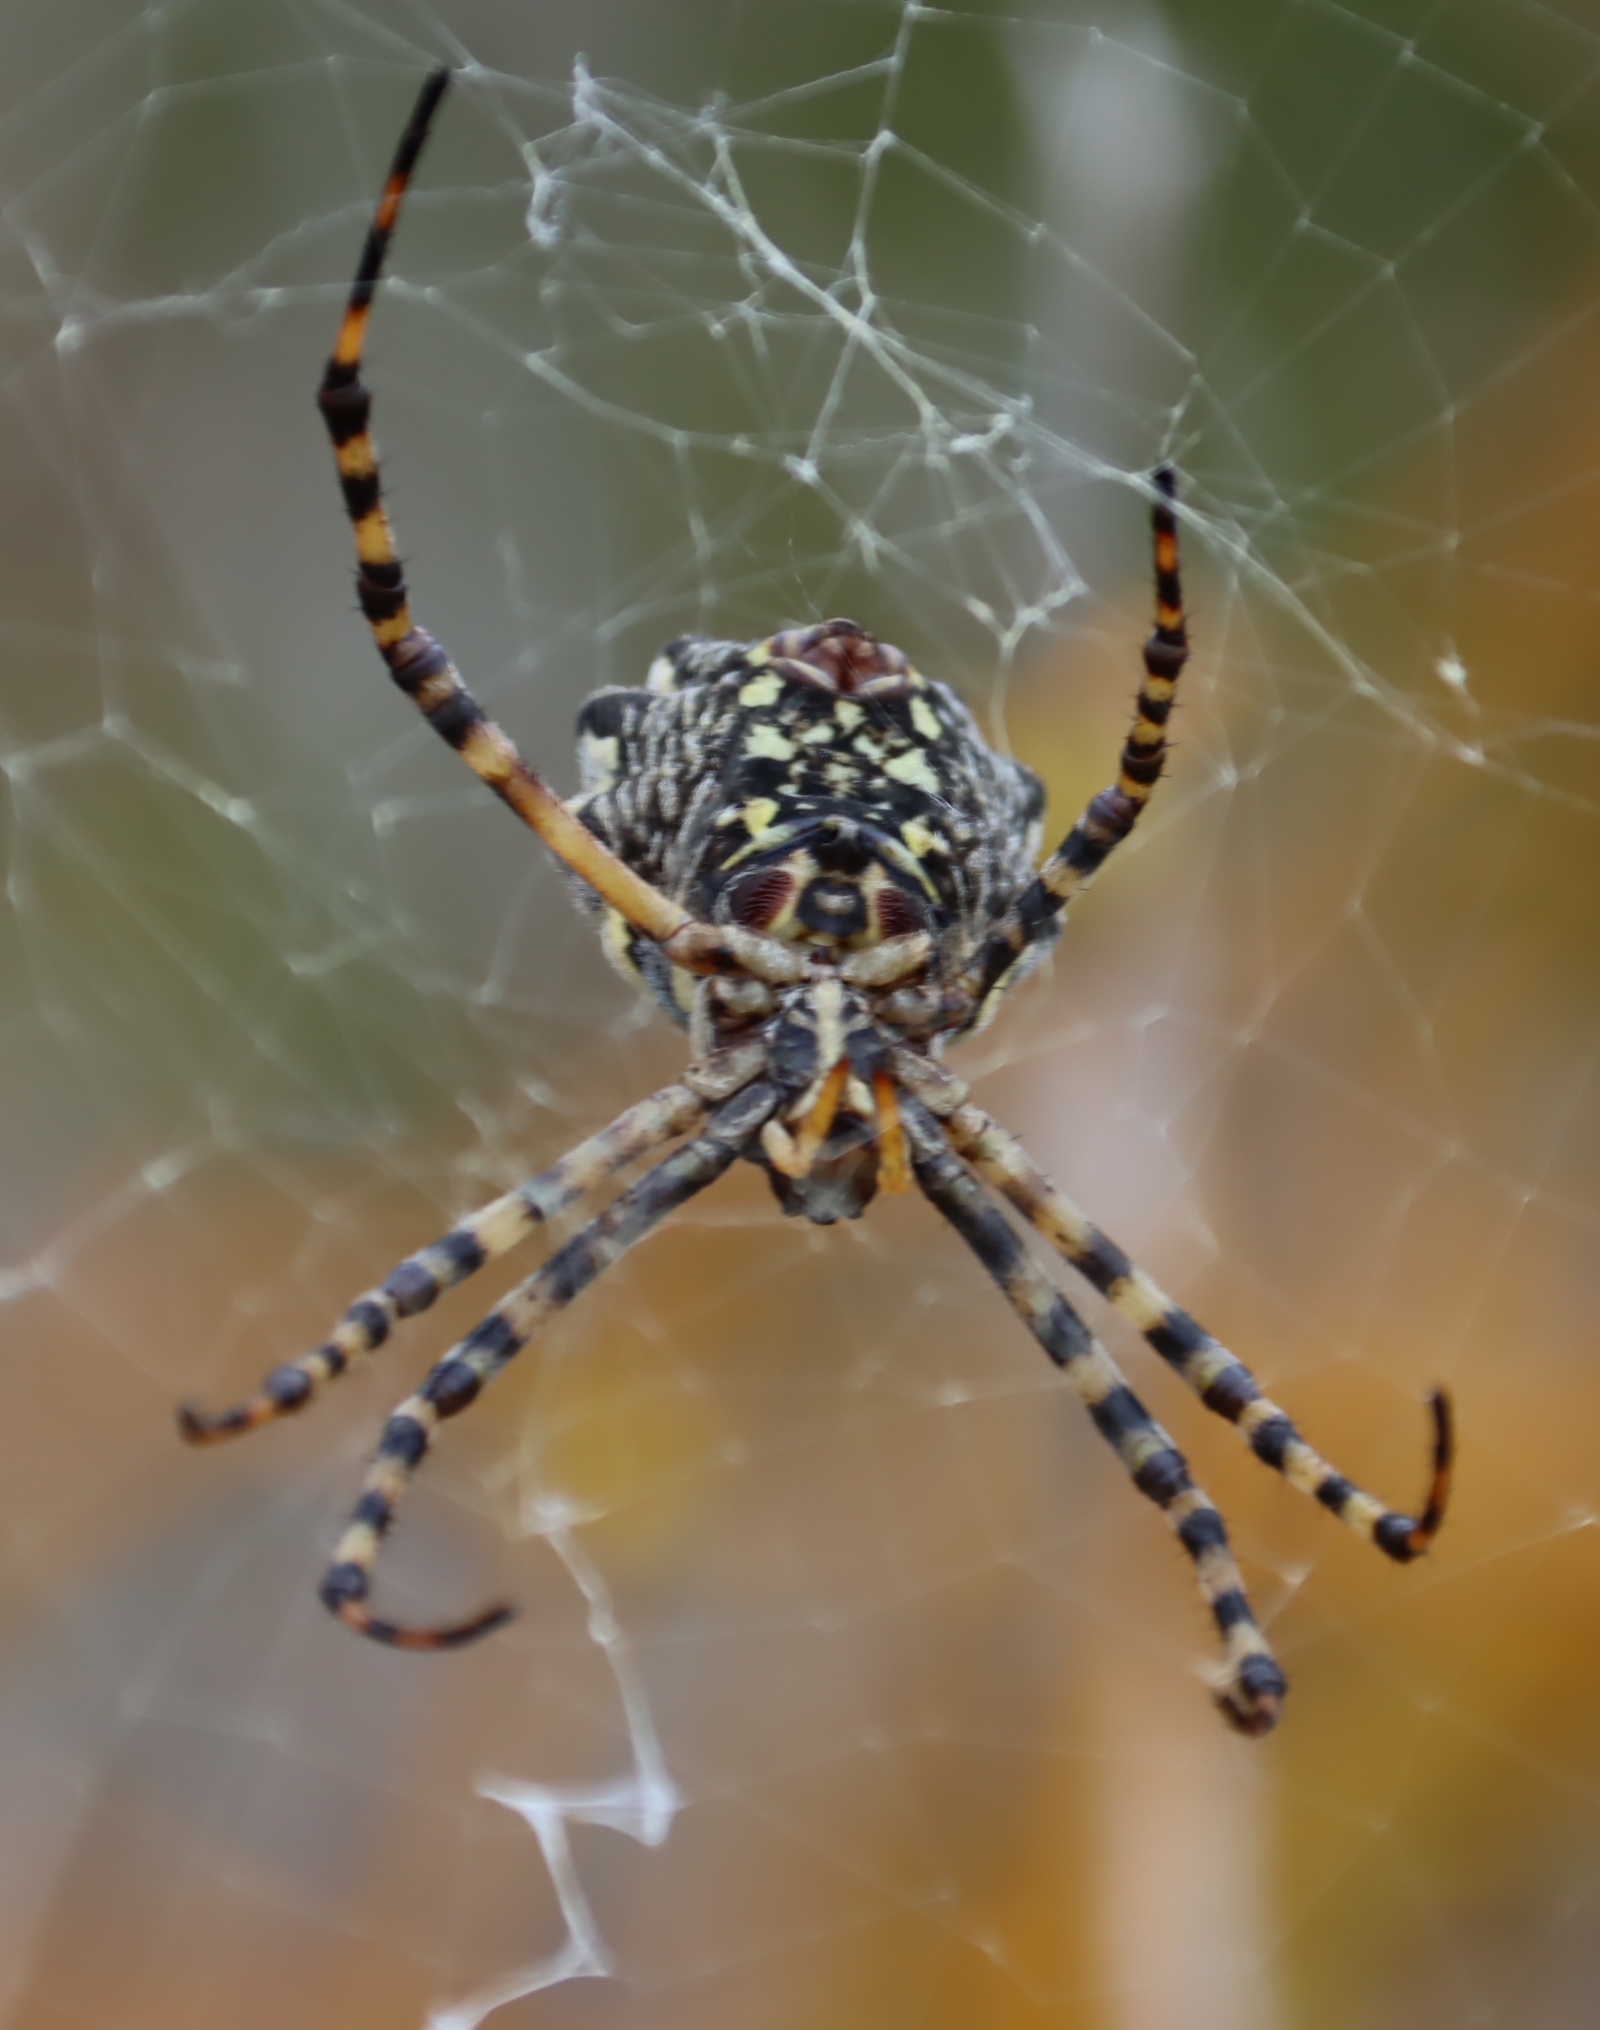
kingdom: Animalia
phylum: Arthropoda
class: Arachnida
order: Araneae
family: Araneidae
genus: Argiope
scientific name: Argiope australis
